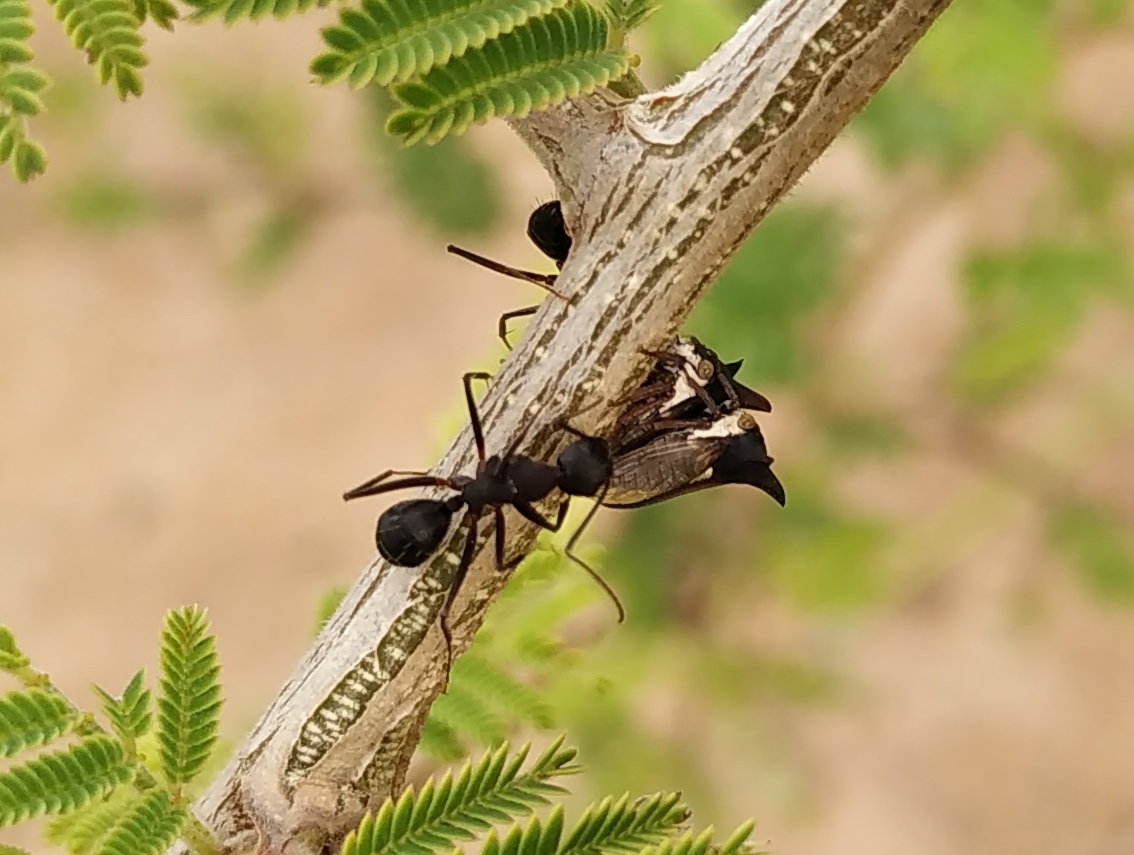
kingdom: Animalia
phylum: Arthropoda
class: Insecta
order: Hemiptera
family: Membracidae
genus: Leptocentrus
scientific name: Leptocentrus taurus
